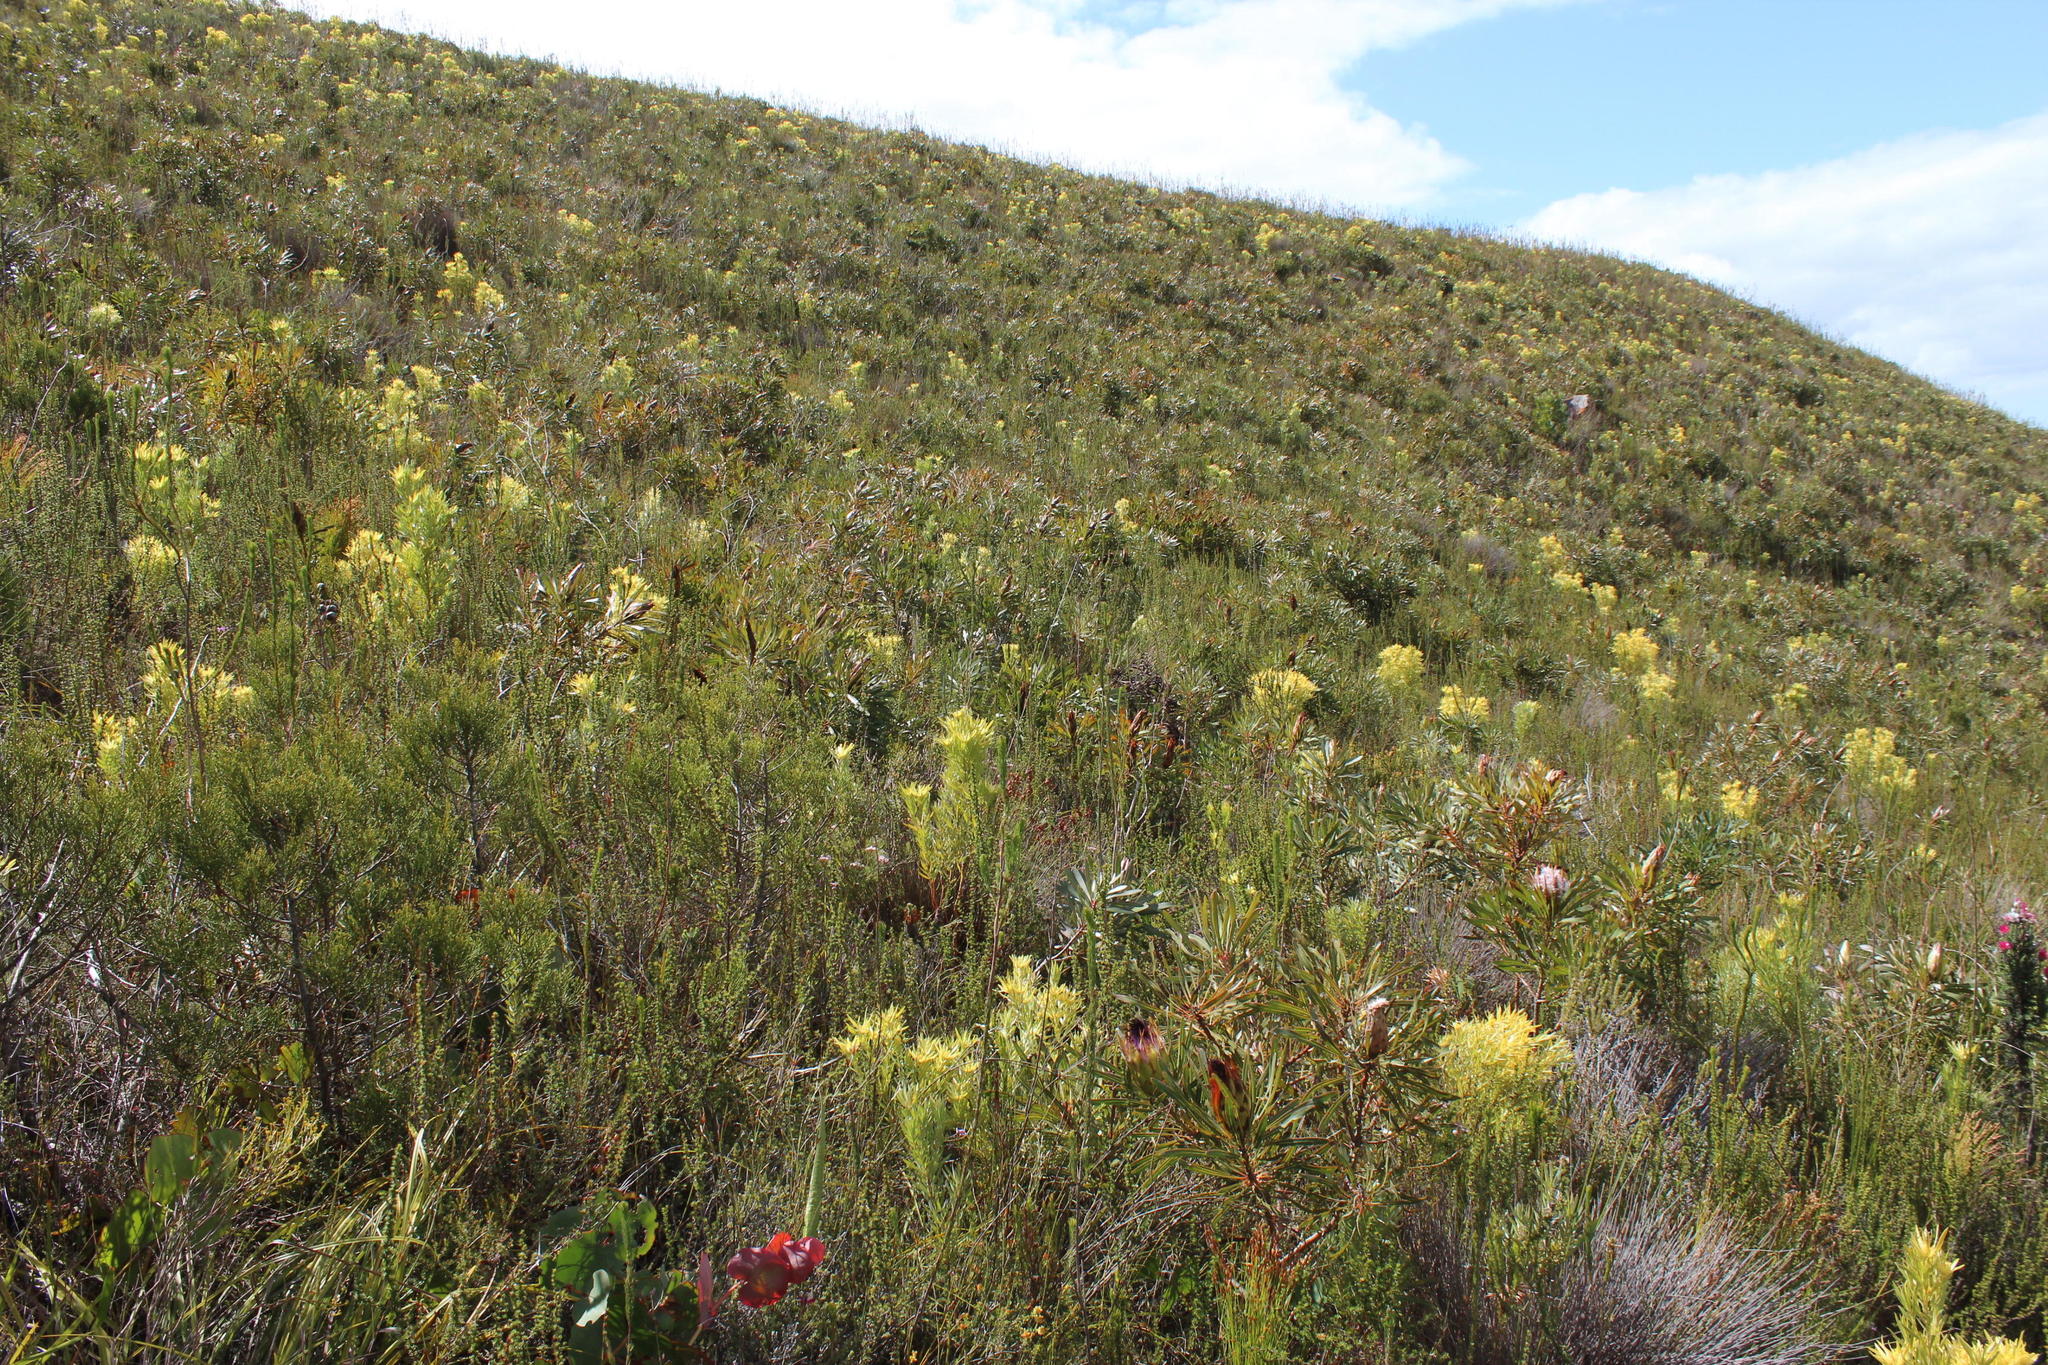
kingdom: Plantae
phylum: Tracheophyta
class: Magnoliopsida
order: Proteales
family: Proteaceae
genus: Protea
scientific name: Protea longifolia
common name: Long-leaf sugarbush
